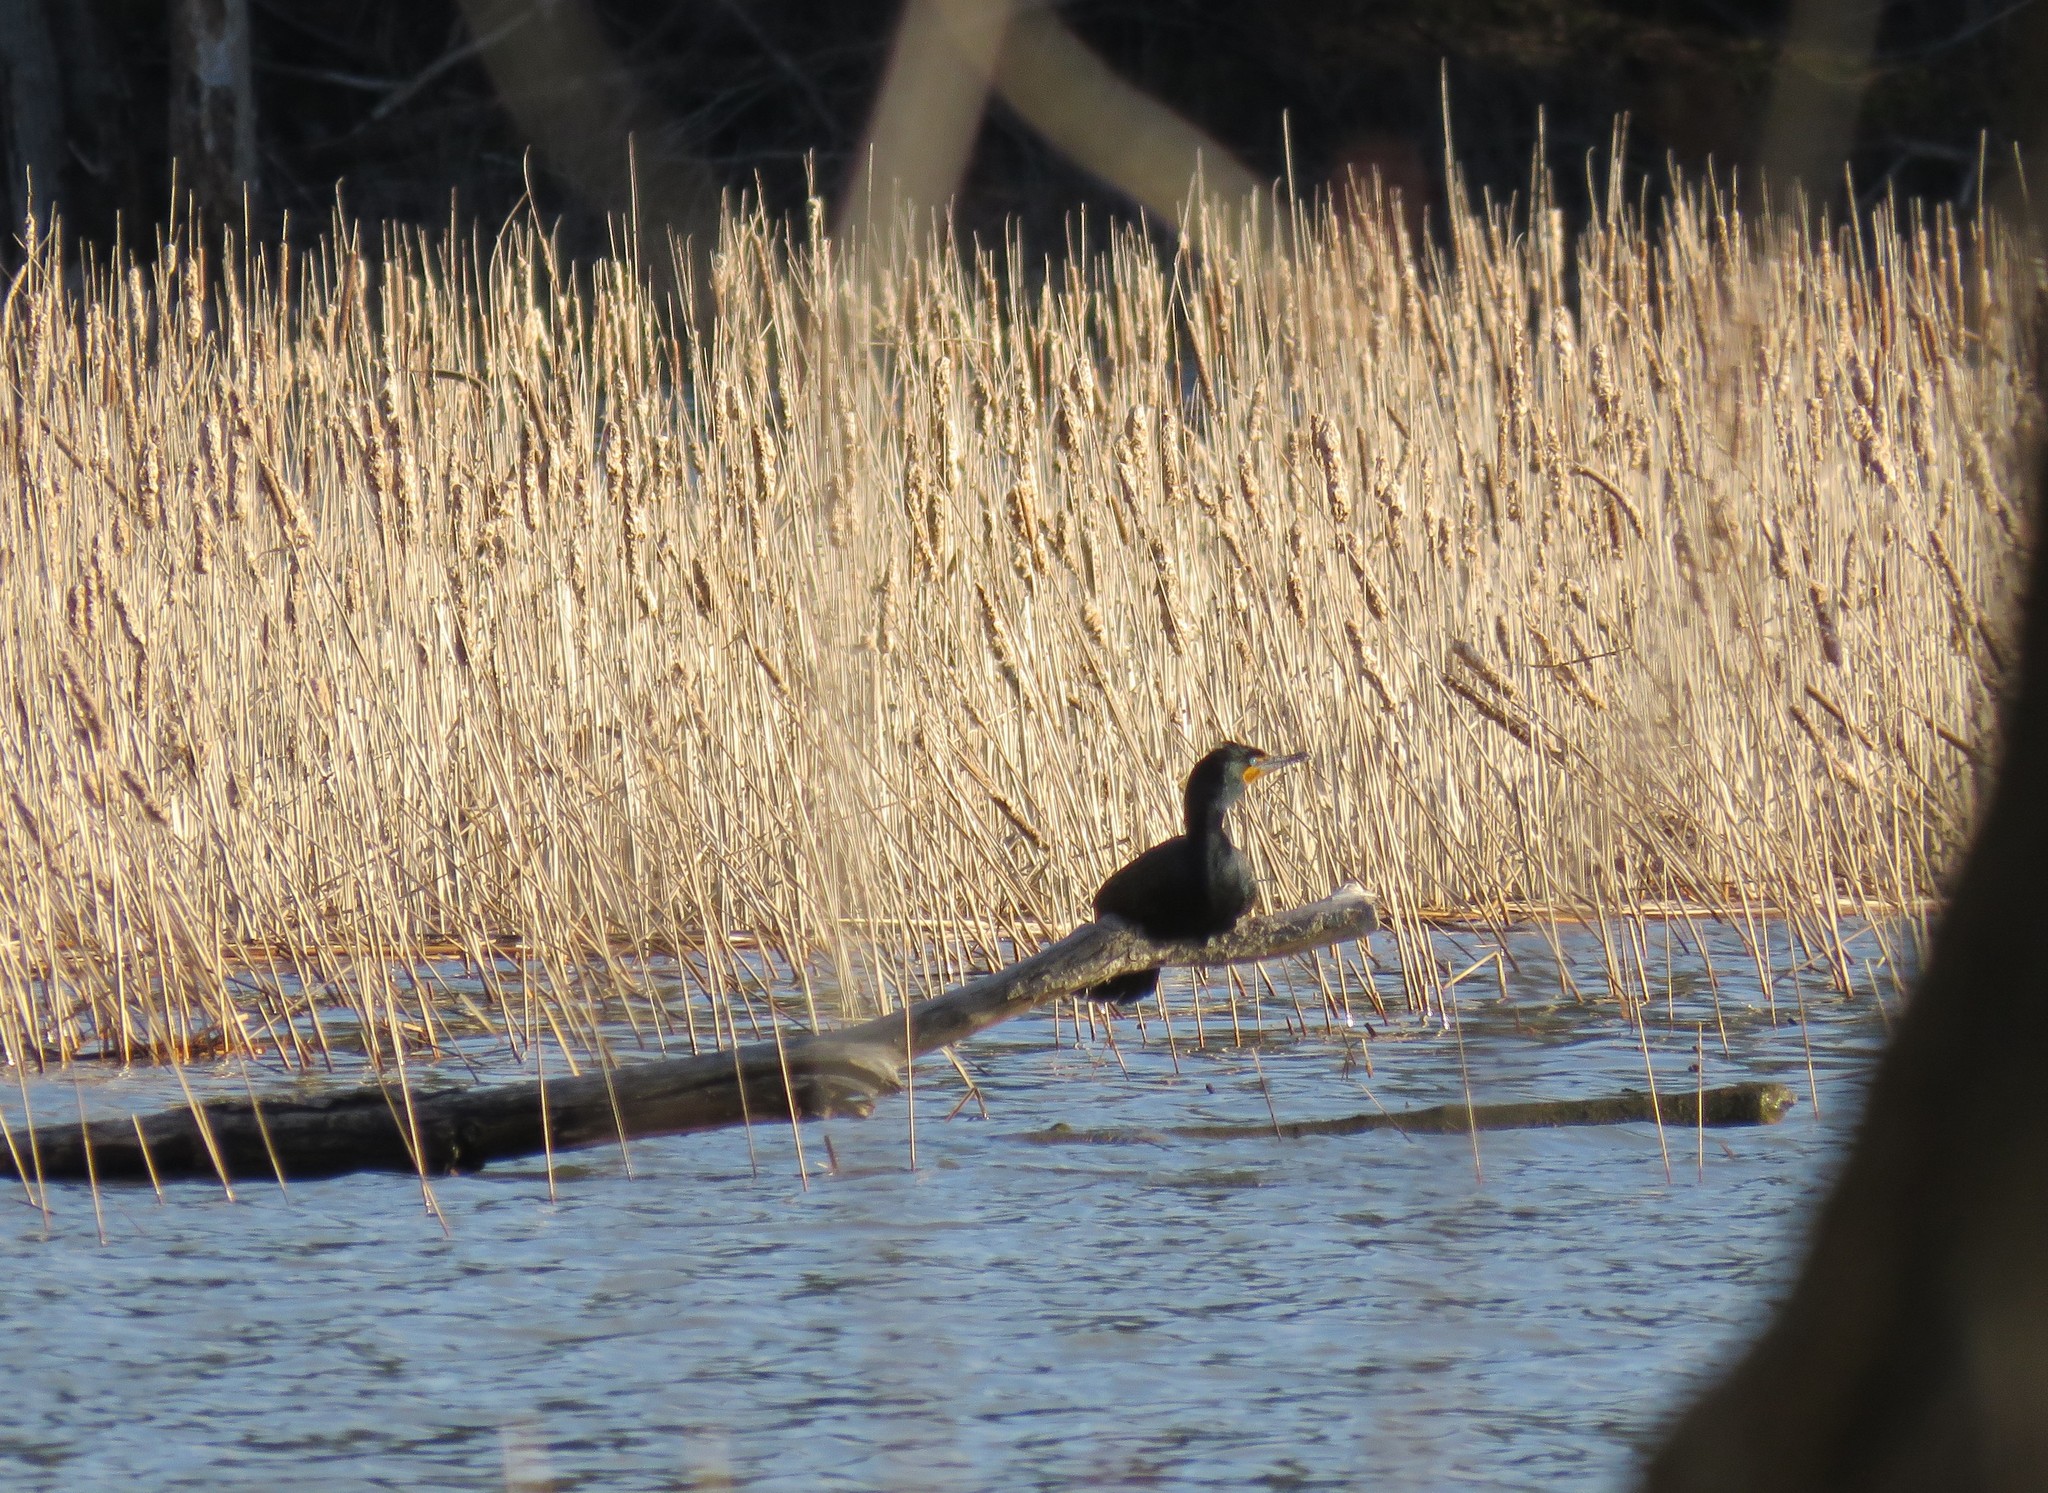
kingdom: Animalia
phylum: Chordata
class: Aves
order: Suliformes
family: Phalacrocoracidae
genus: Phalacrocorax
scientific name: Phalacrocorax auritus
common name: Double-crested cormorant
